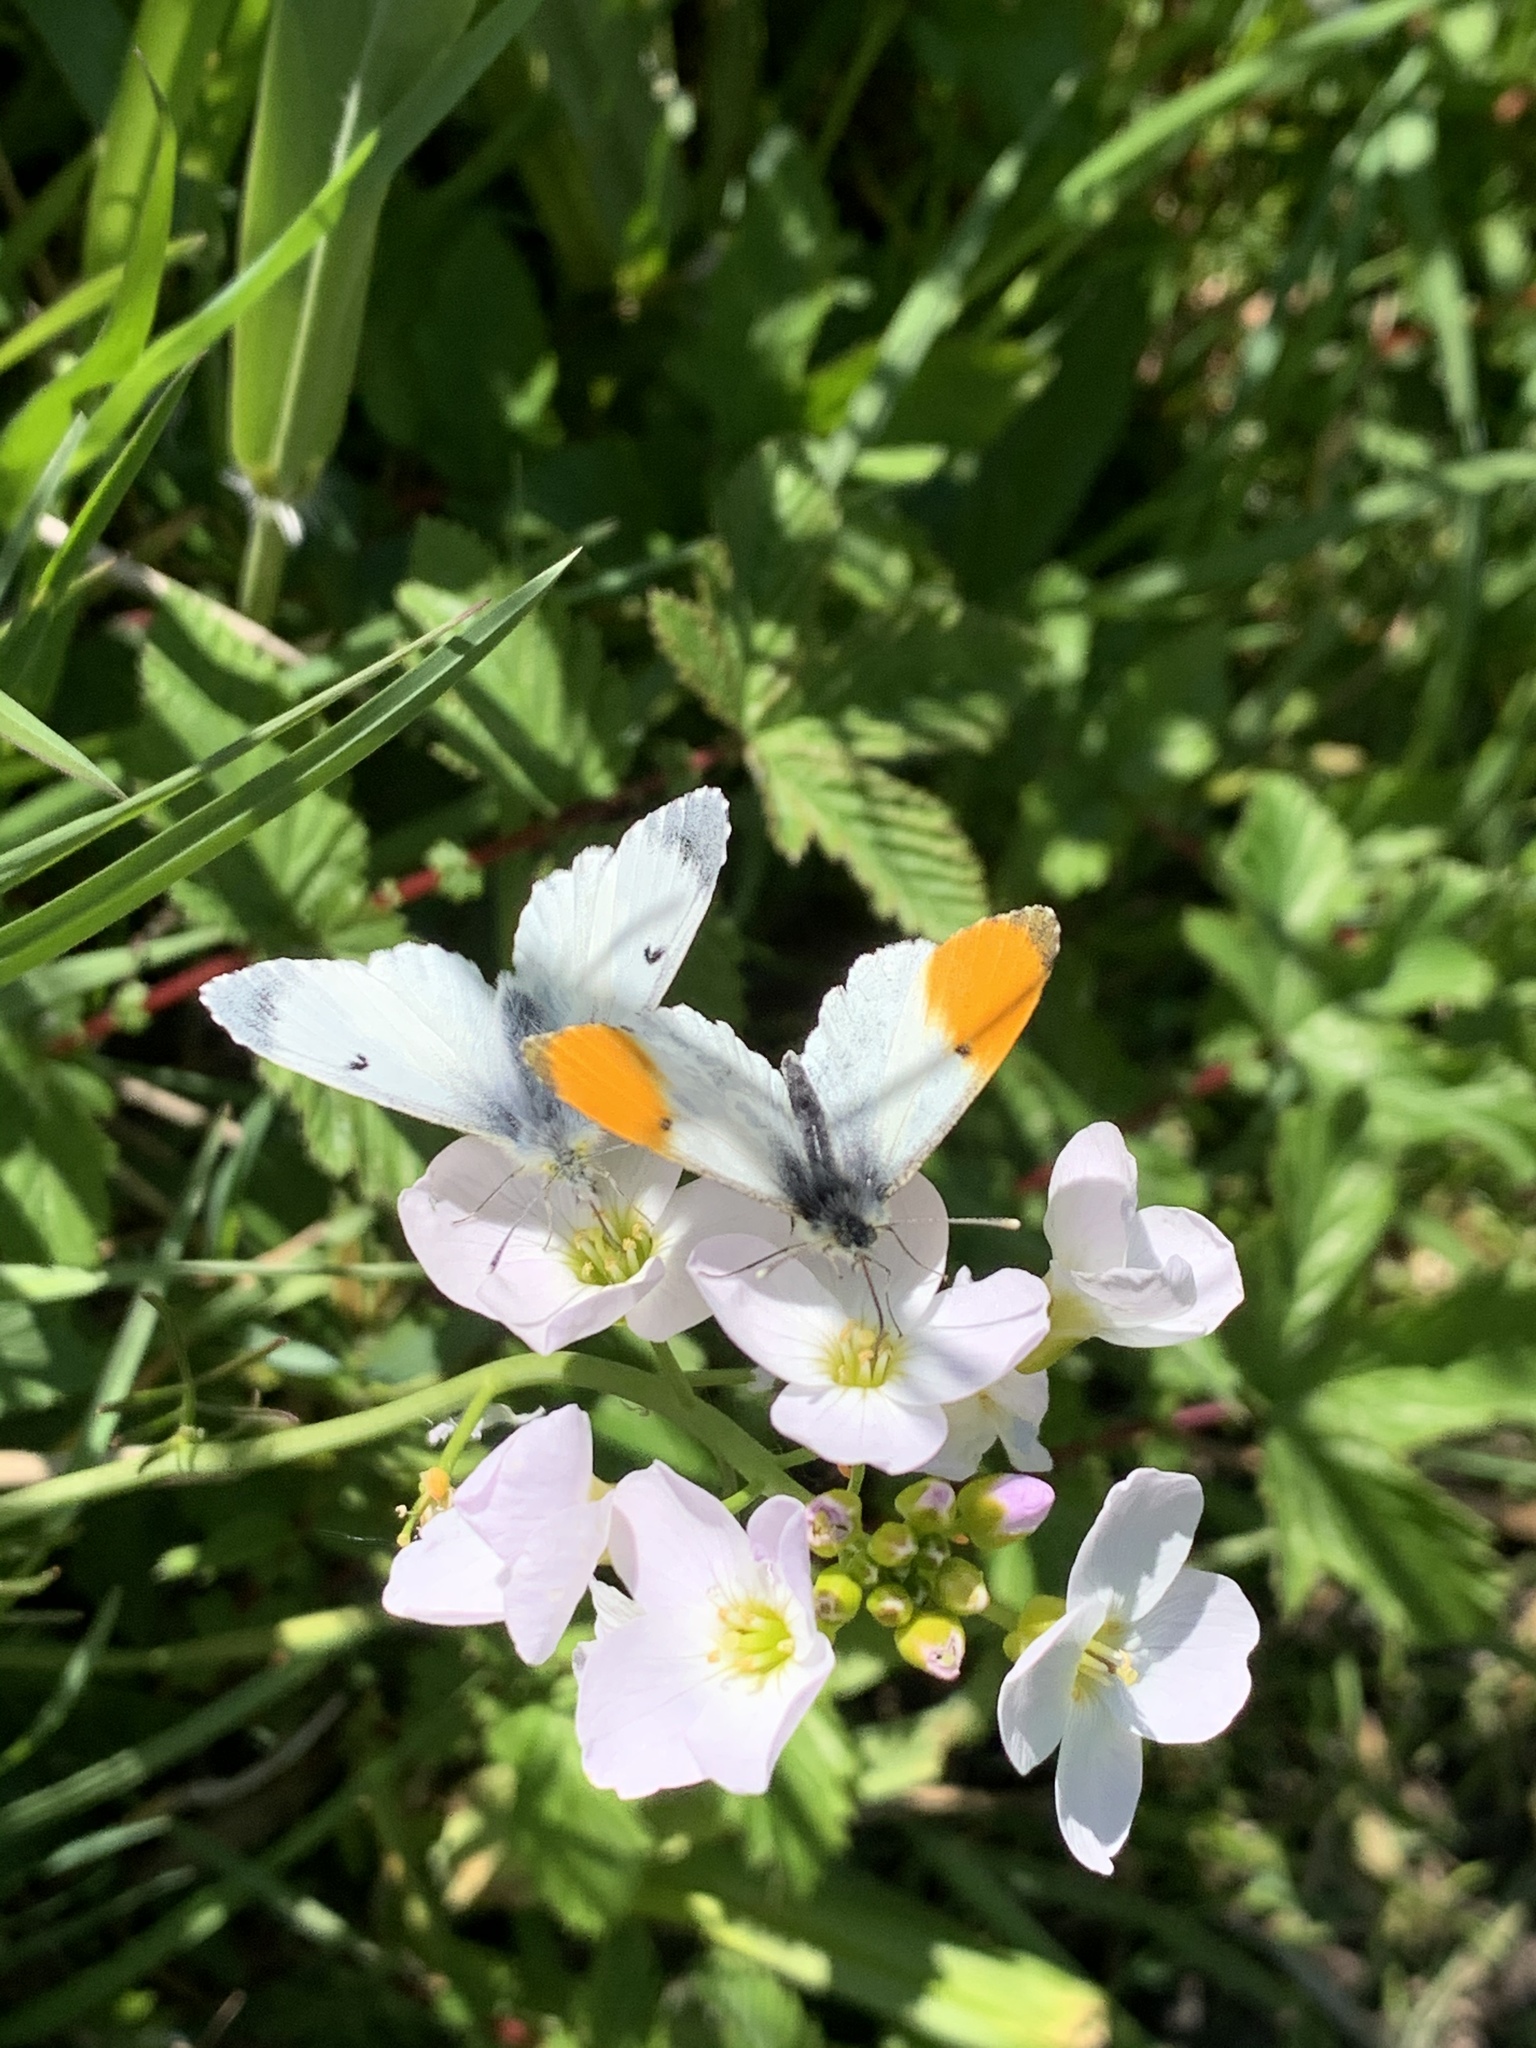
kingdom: Animalia
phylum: Arthropoda
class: Insecta
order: Lepidoptera
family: Pieridae
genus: Anthocharis
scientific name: Anthocharis cardamines
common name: Orange-tip
